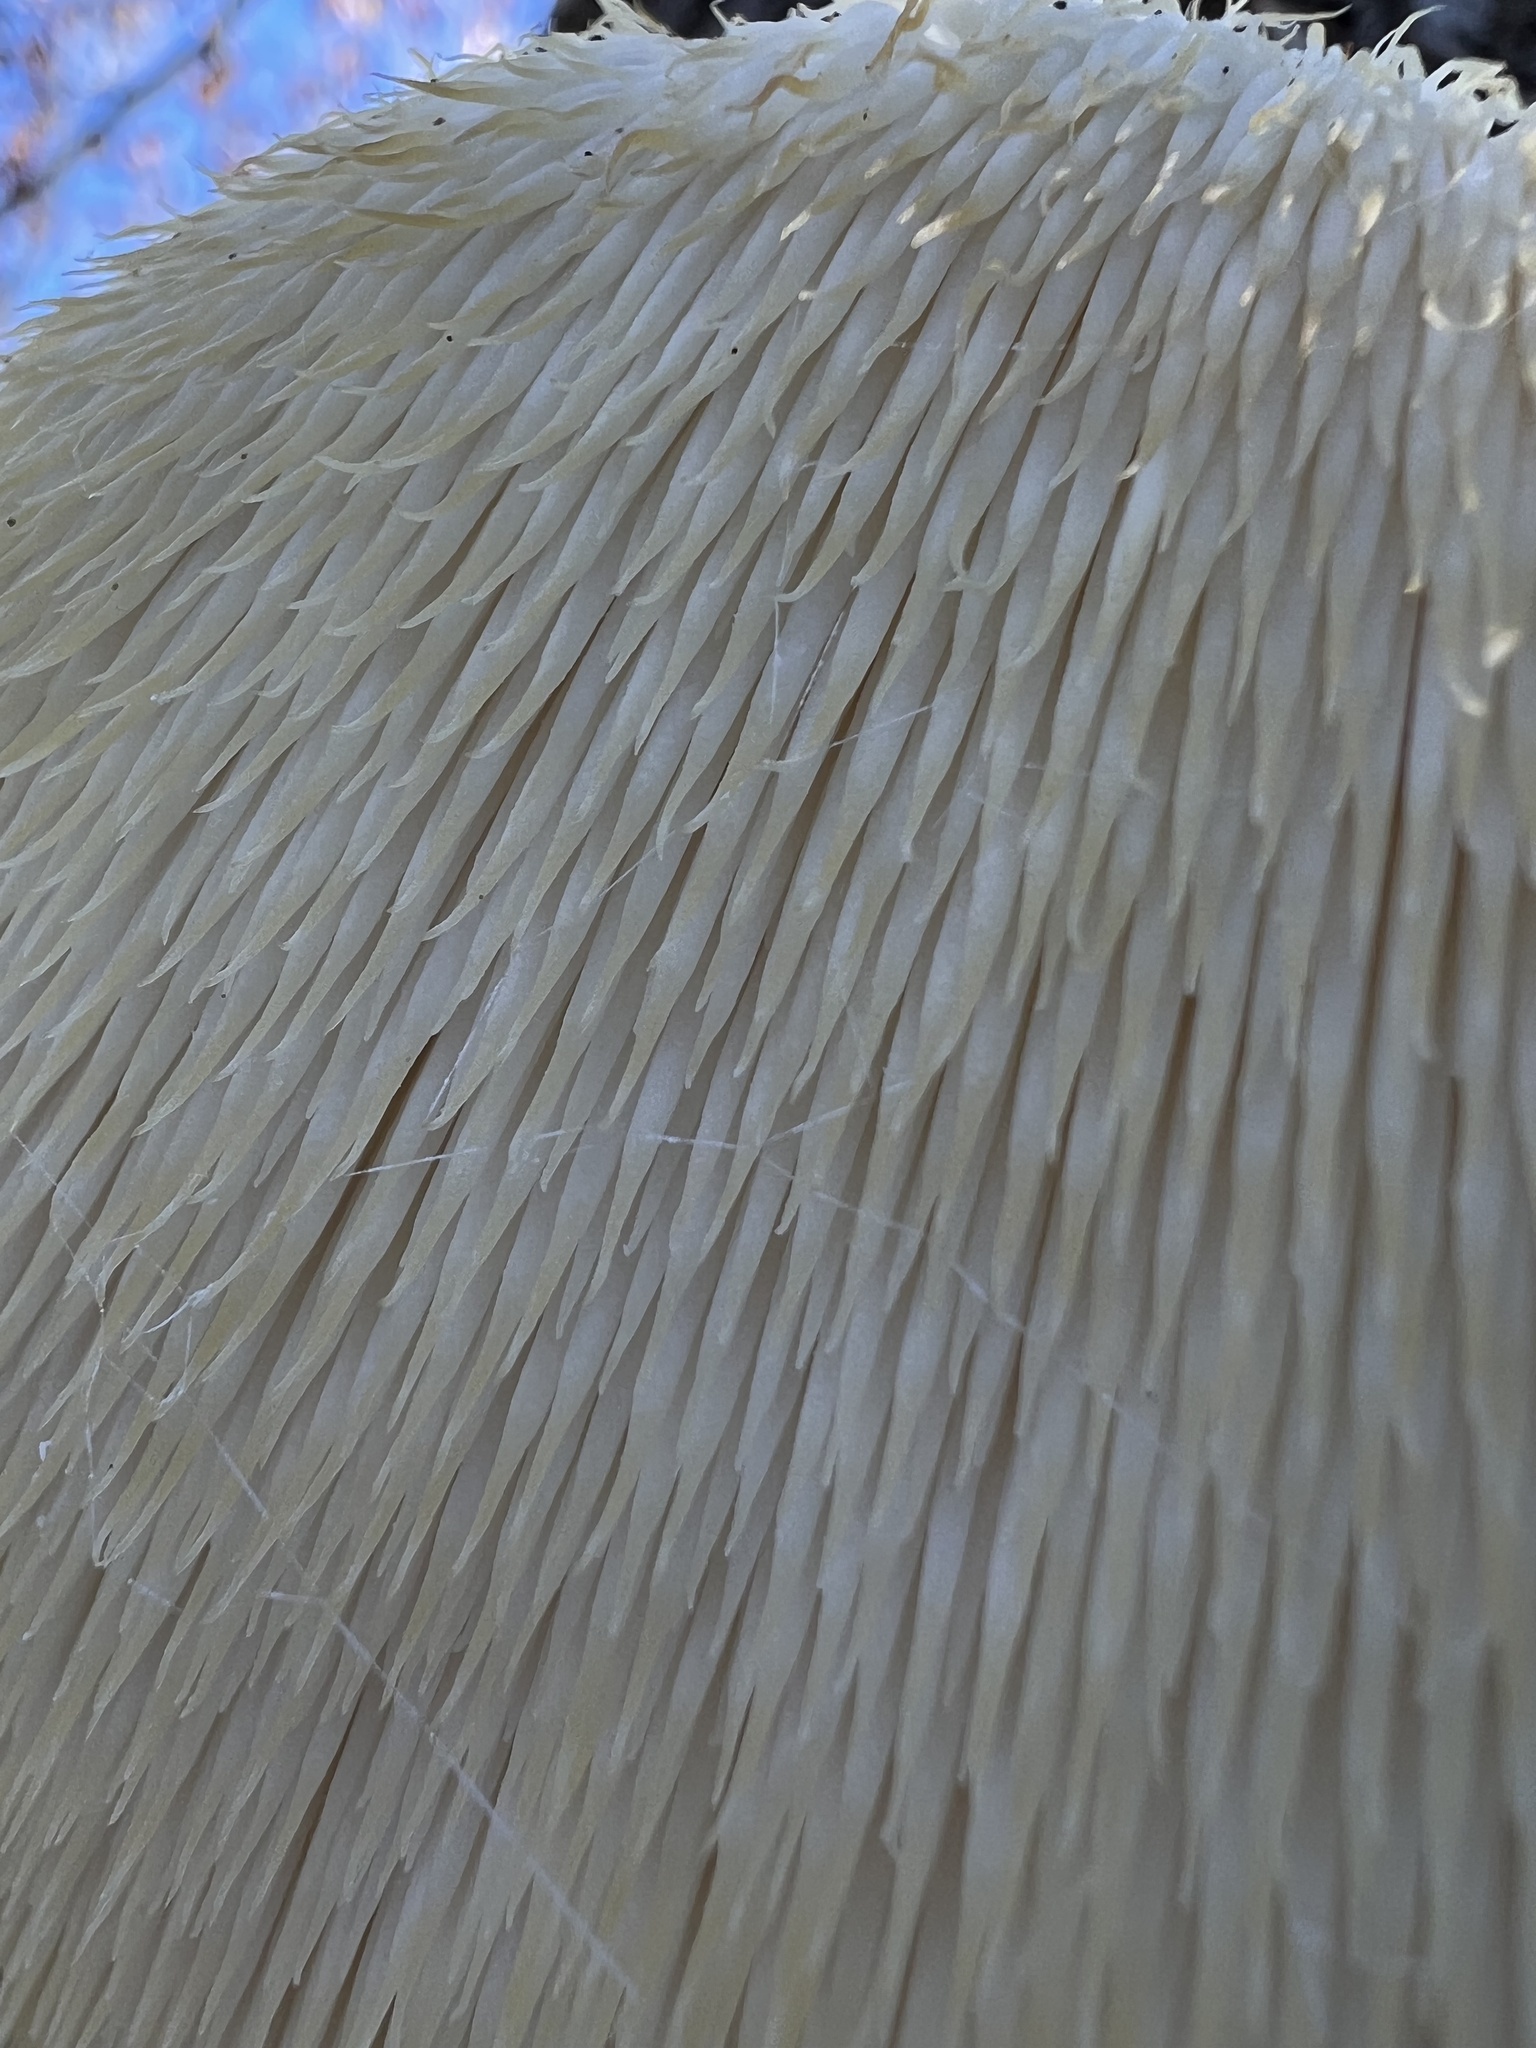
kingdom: Fungi
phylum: Basidiomycota
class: Agaricomycetes
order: Russulales
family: Hericiaceae
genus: Hericium
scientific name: Hericium erinaceus
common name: Bearded tooth
